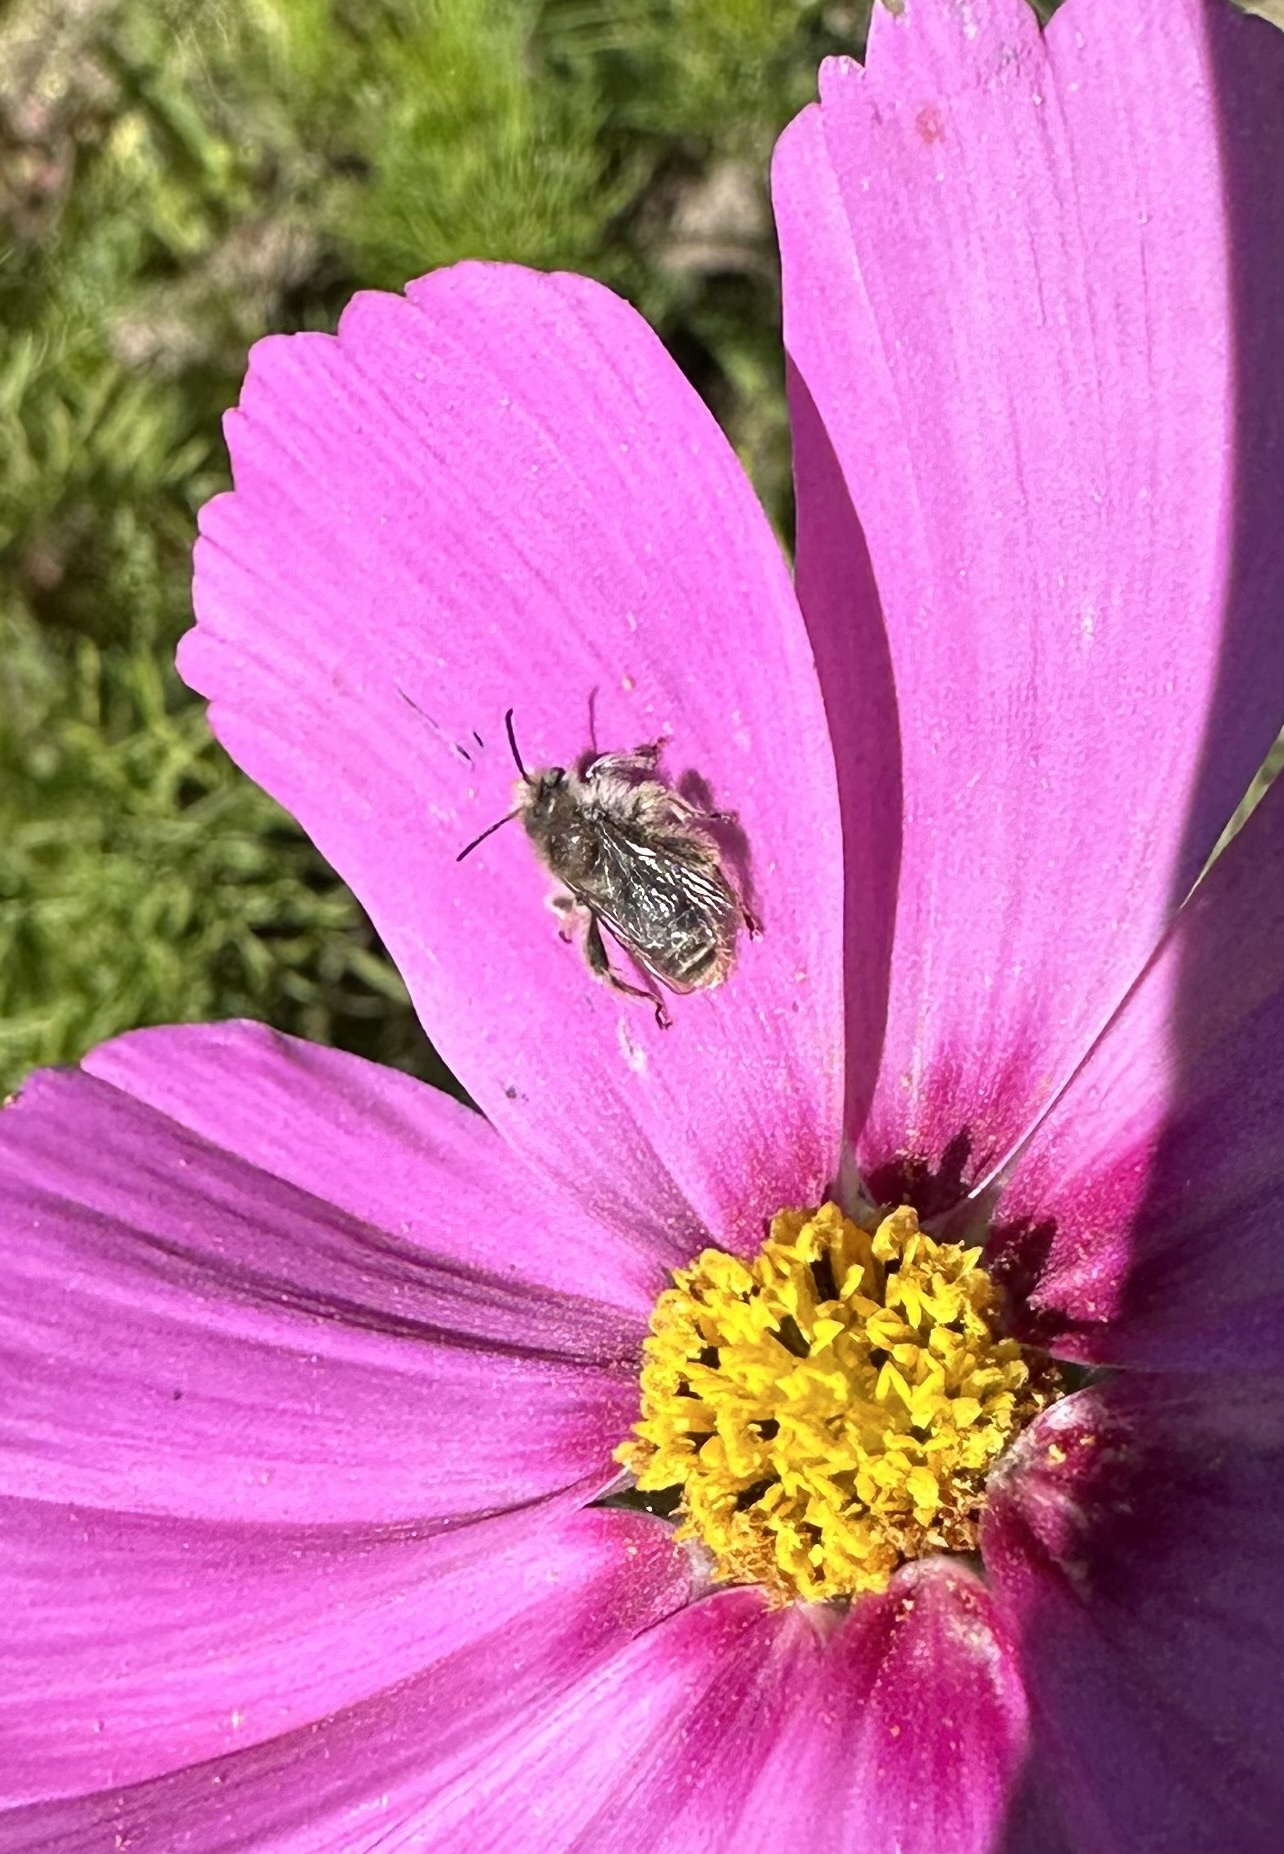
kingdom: Animalia
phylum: Arthropoda
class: Insecta
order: Hymenoptera
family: Apidae
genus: Diadasia
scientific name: Diadasia chilensis
